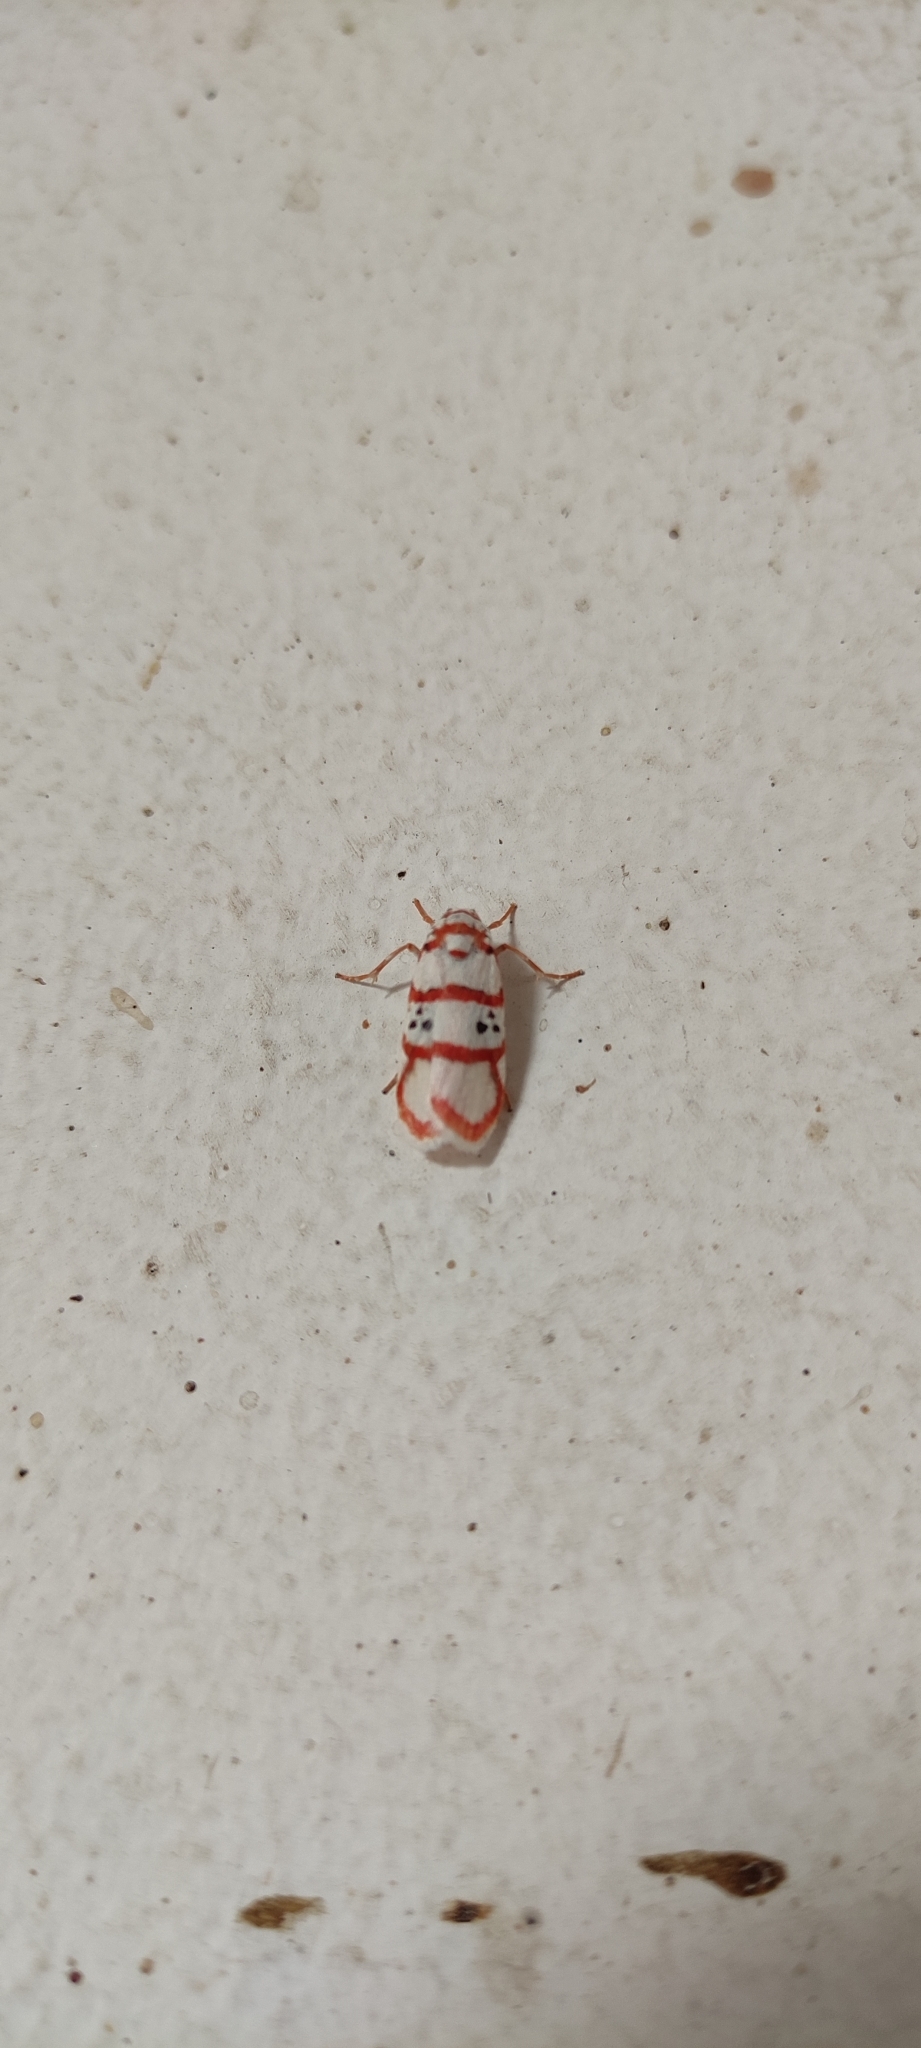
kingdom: Animalia
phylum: Arthropoda
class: Insecta
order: Lepidoptera
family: Erebidae
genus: Cyana
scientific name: Cyana peregrina
